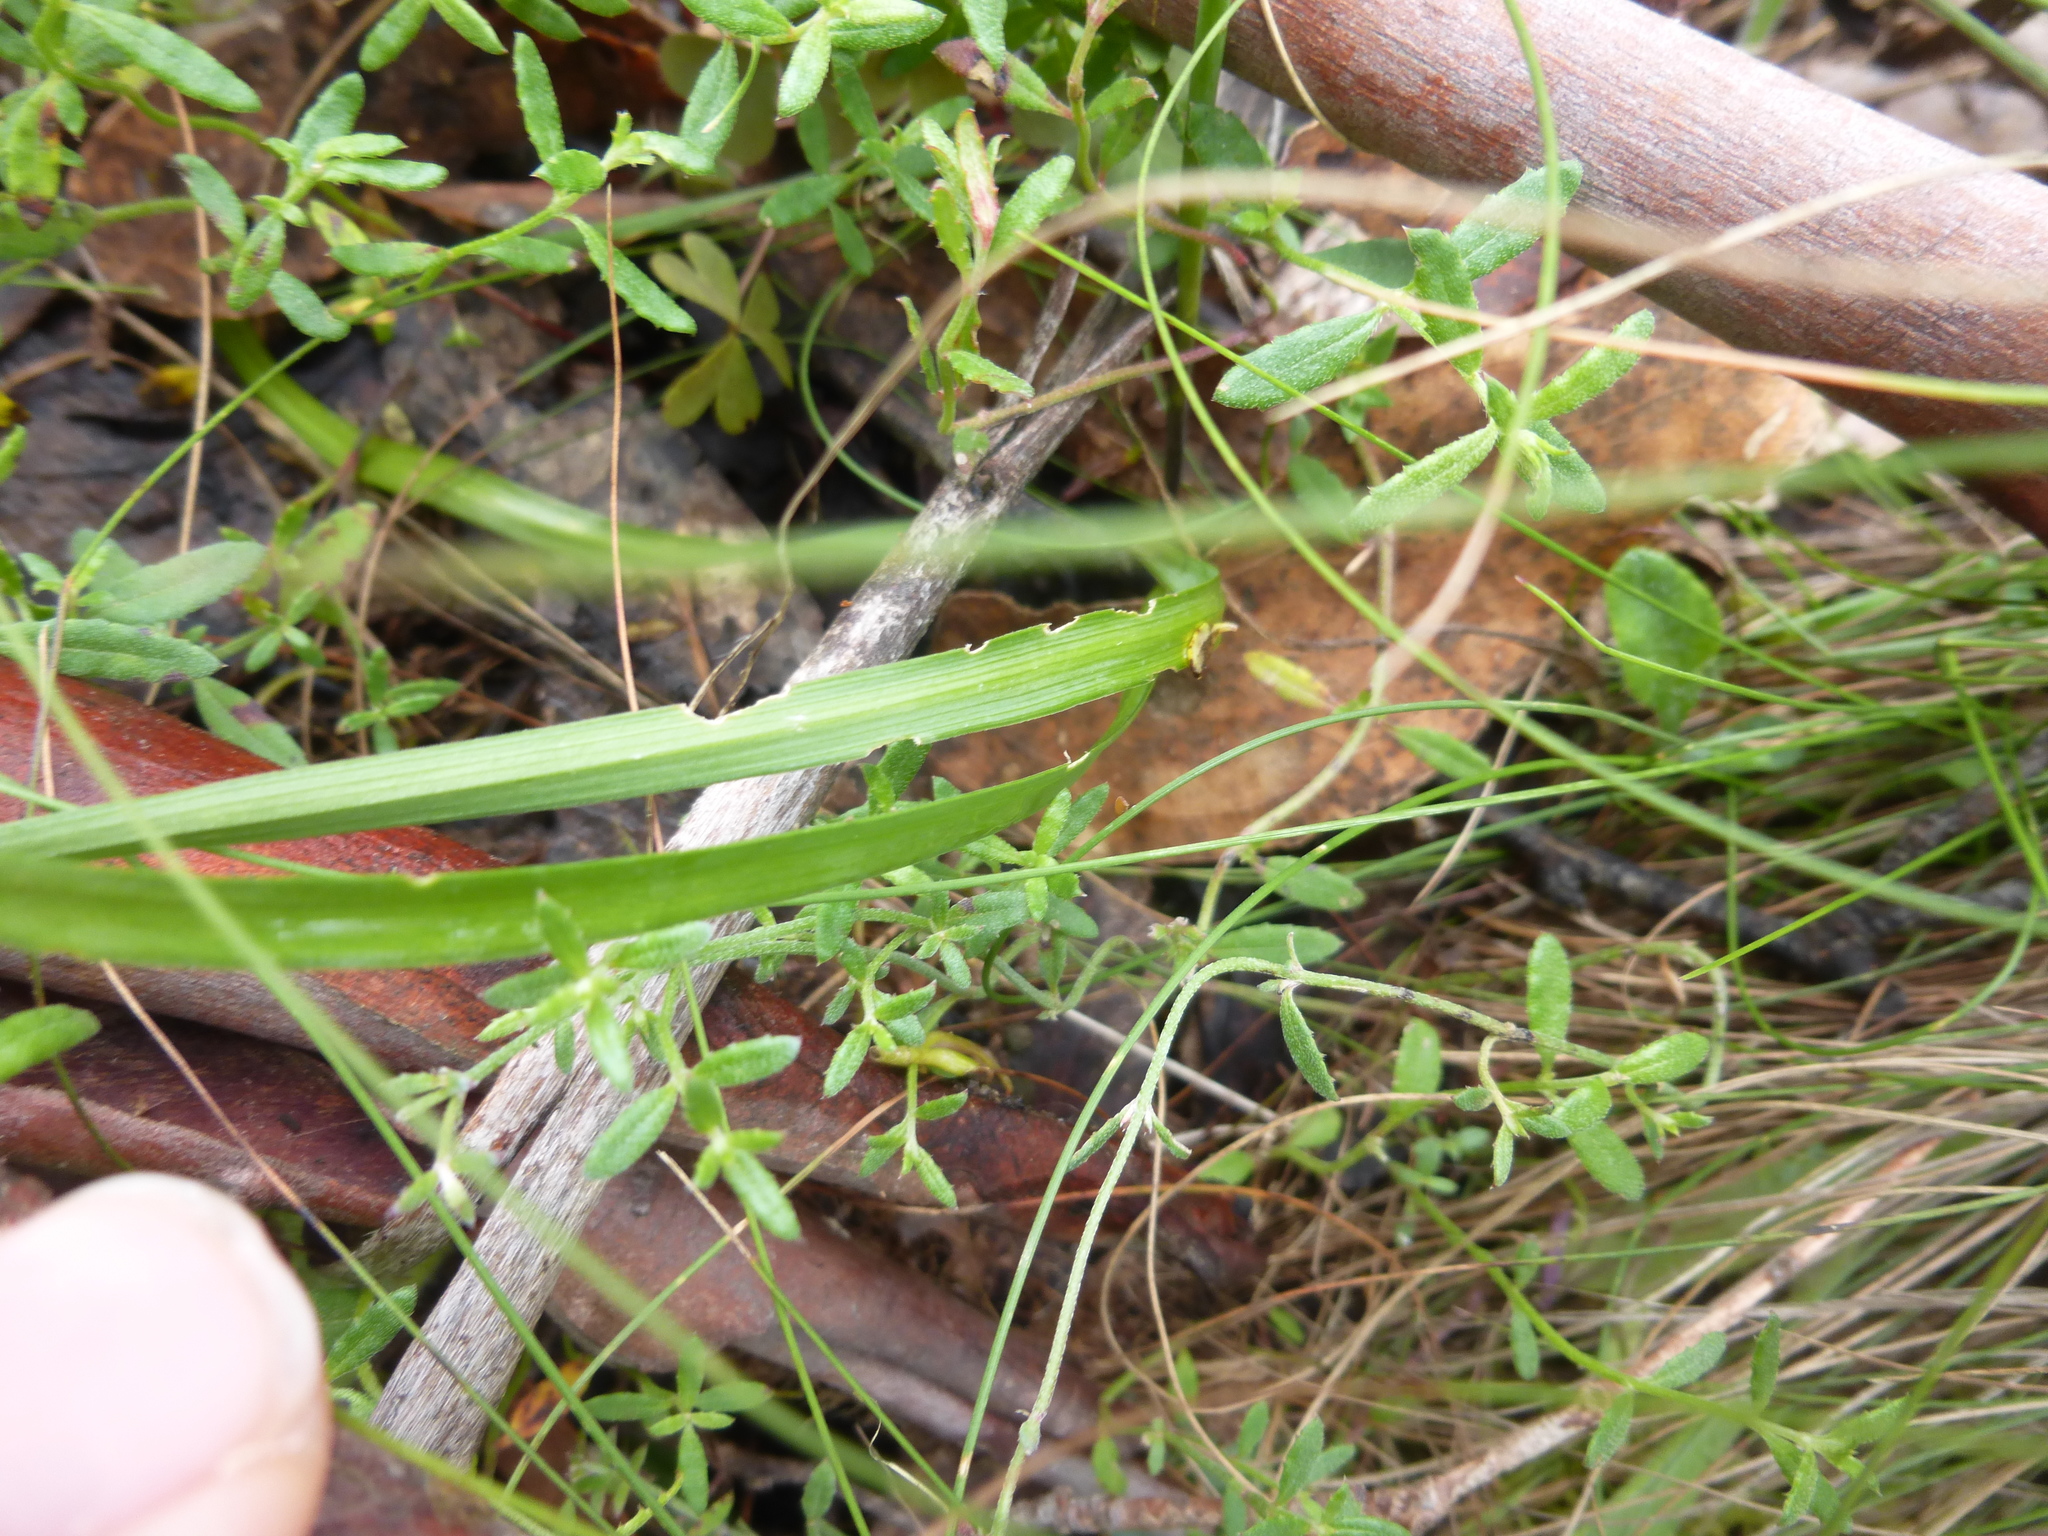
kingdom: Plantae
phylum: Tracheophyta
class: Liliopsida
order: Asparagales
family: Asparagaceae
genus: Arthropodium
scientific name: Arthropodium strictum
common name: Chocolate-lily
